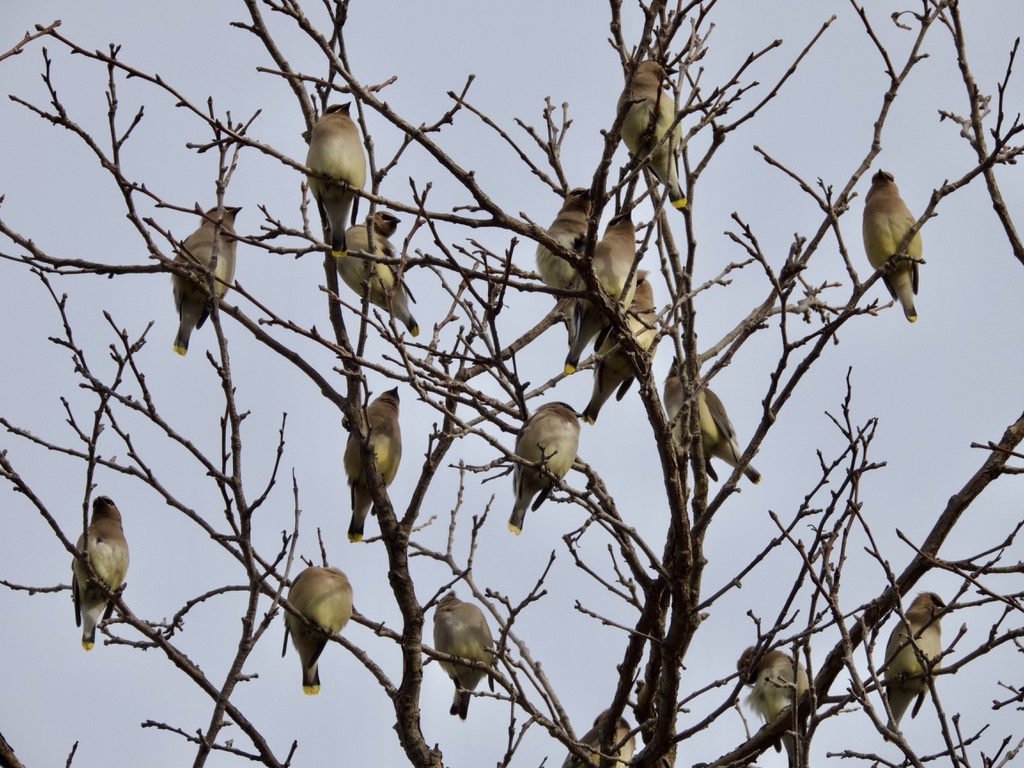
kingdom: Animalia
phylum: Chordata
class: Aves
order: Passeriformes
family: Bombycillidae
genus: Bombycilla
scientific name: Bombycilla cedrorum
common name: Cedar waxwing
